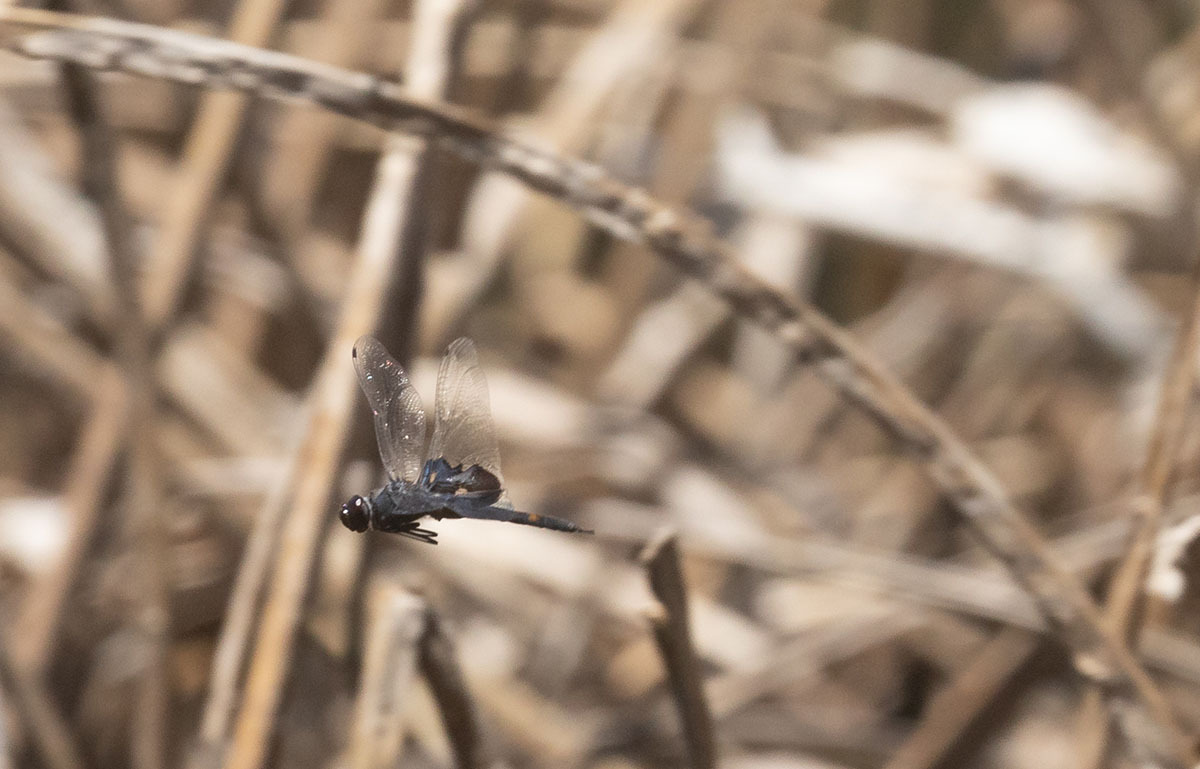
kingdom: Animalia
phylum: Arthropoda
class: Insecta
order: Odonata
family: Libellulidae
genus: Tramea
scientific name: Tramea lacerata
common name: Black saddlebags
